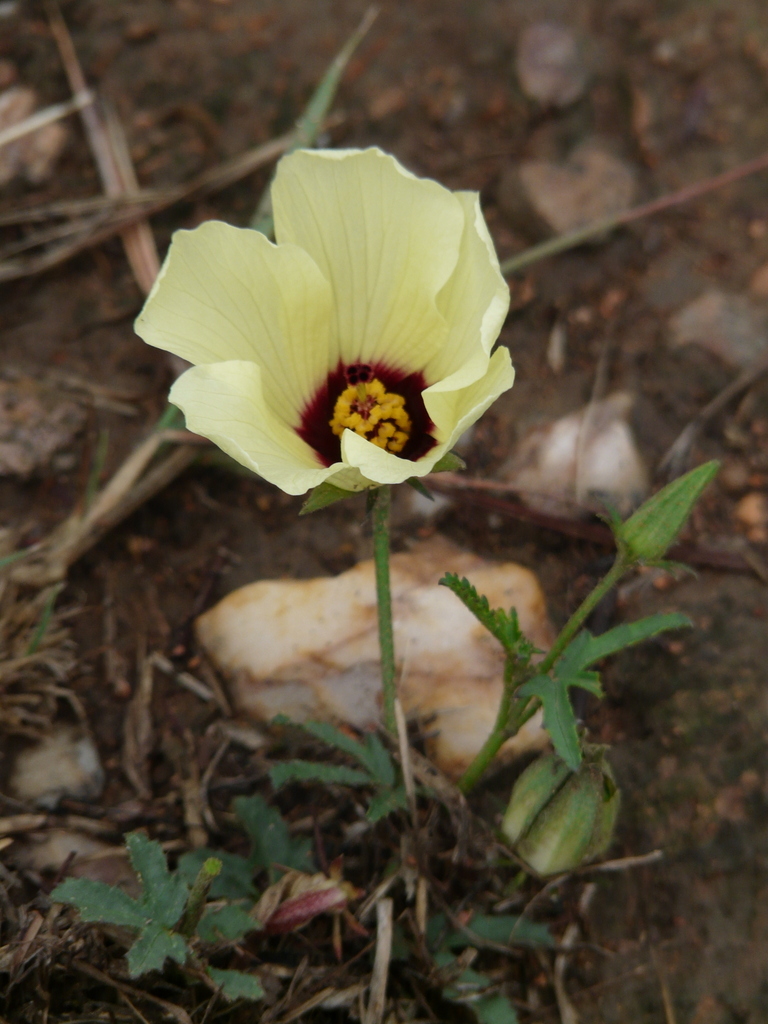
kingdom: Plantae
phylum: Tracheophyta
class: Magnoliopsida
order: Malvales
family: Malvaceae
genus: Hibiscus
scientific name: Hibiscus pusillus
